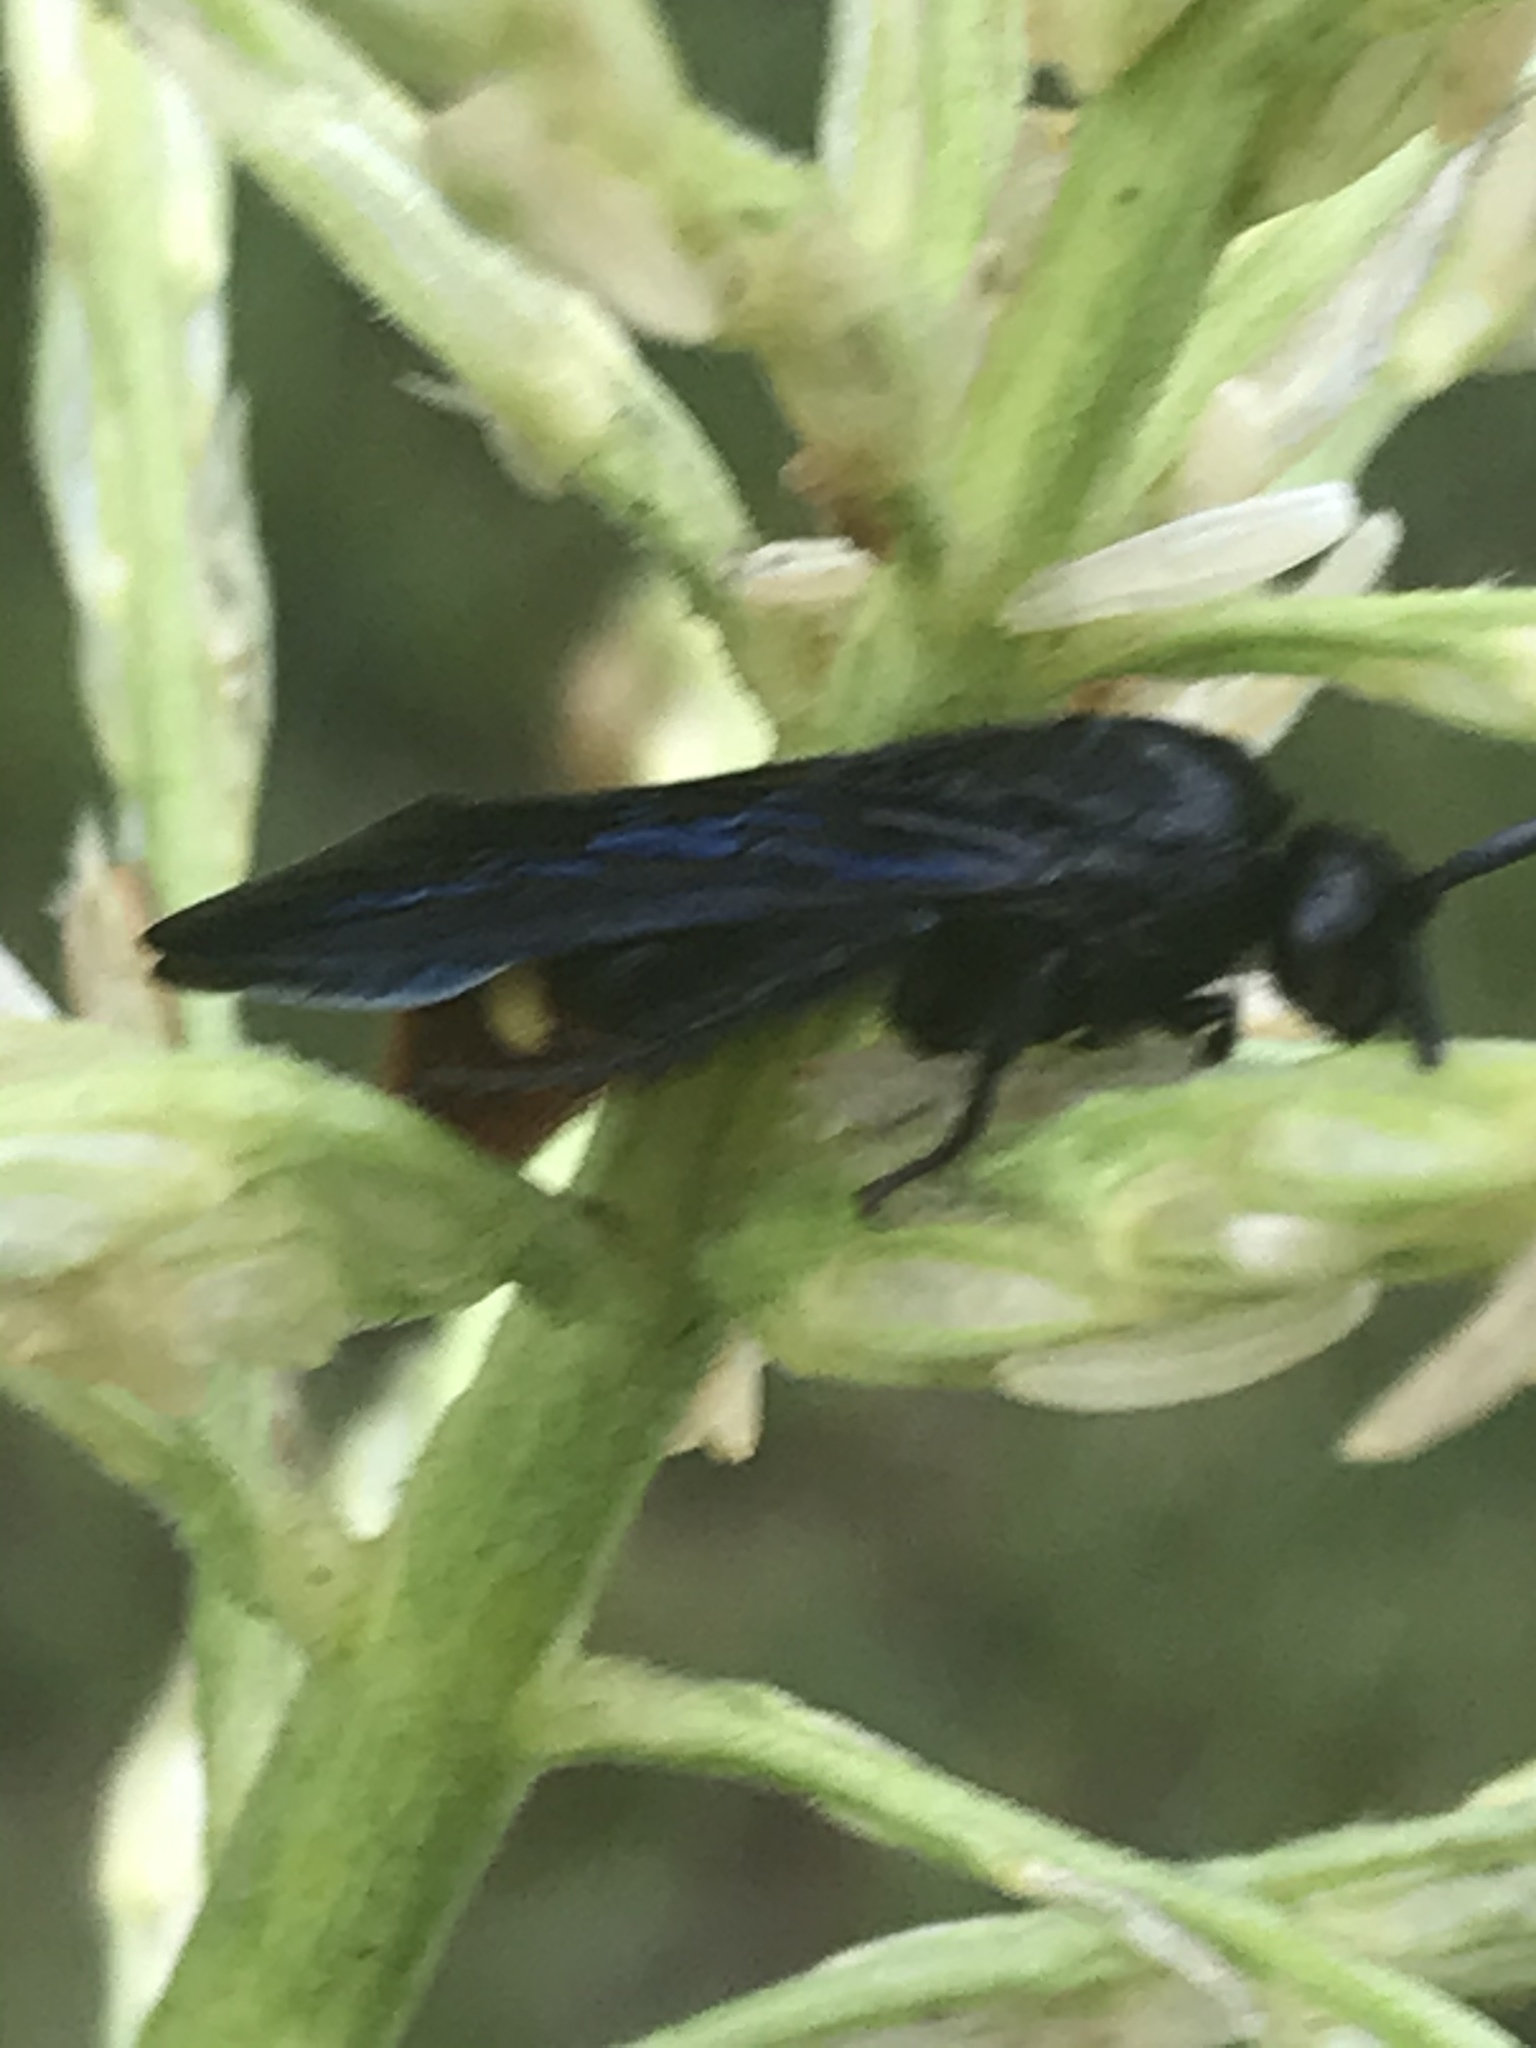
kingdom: Animalia
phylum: Arthropoda
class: Insecta
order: Hymenoptera
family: Scoliidae
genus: Scolia
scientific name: Scolia dubia
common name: Blue-winged scoliid wasp
